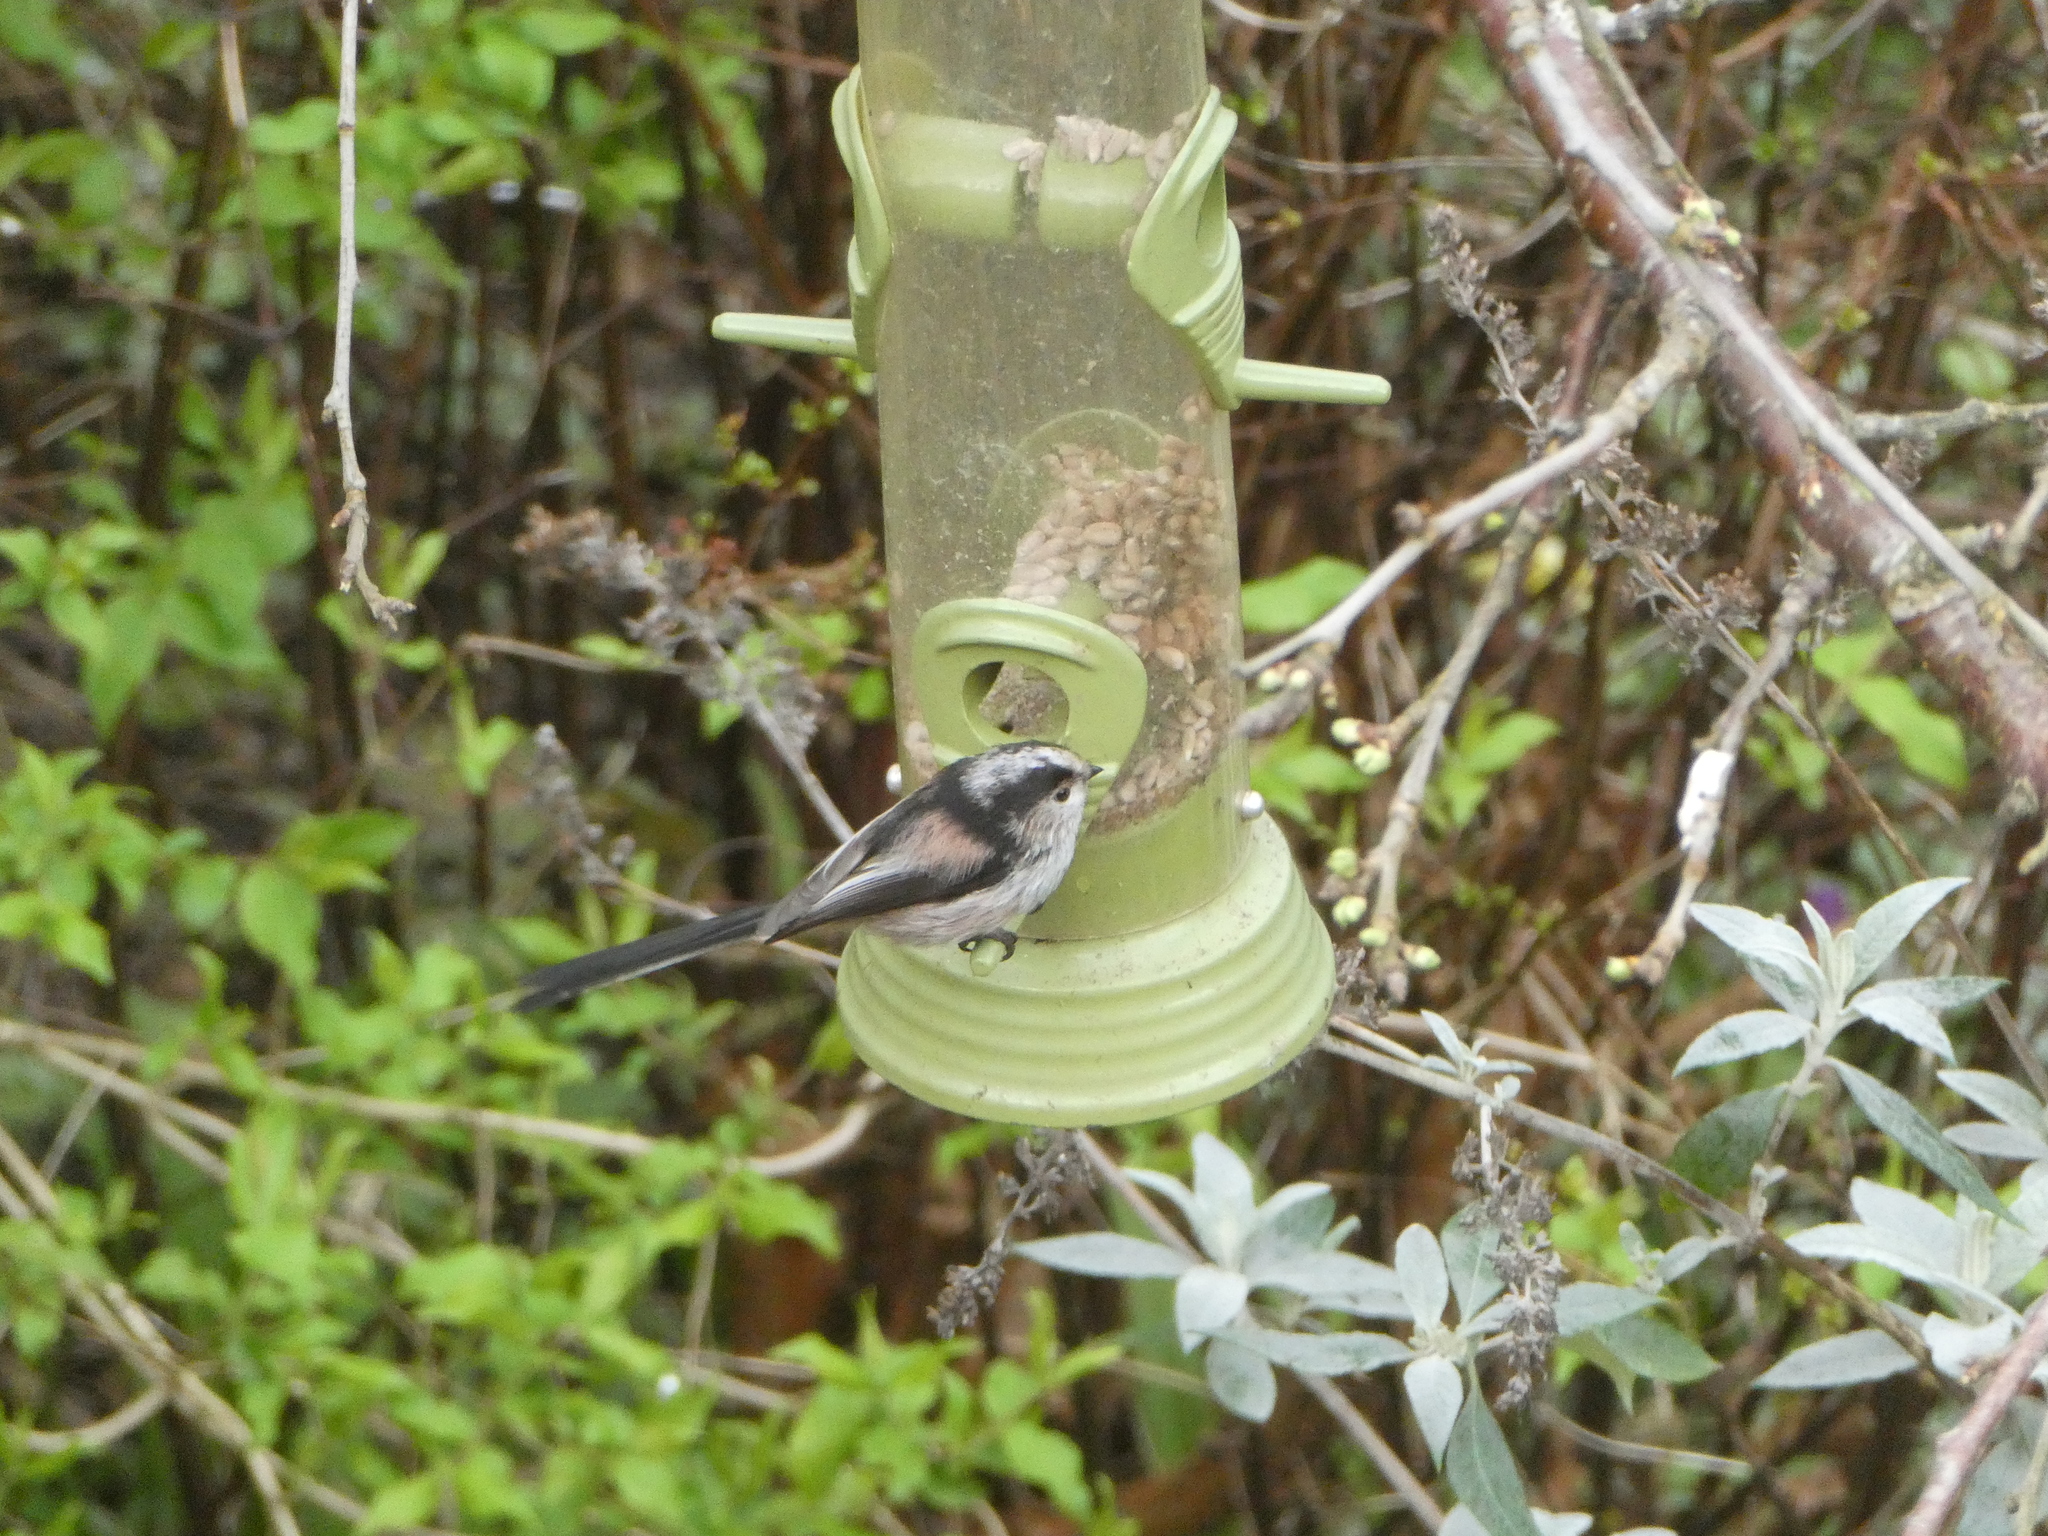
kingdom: Animalia
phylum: Chordata
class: Aves
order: Passeriformes
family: Aegithalidae
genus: Aegithalos
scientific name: Aegithalos caudatus
